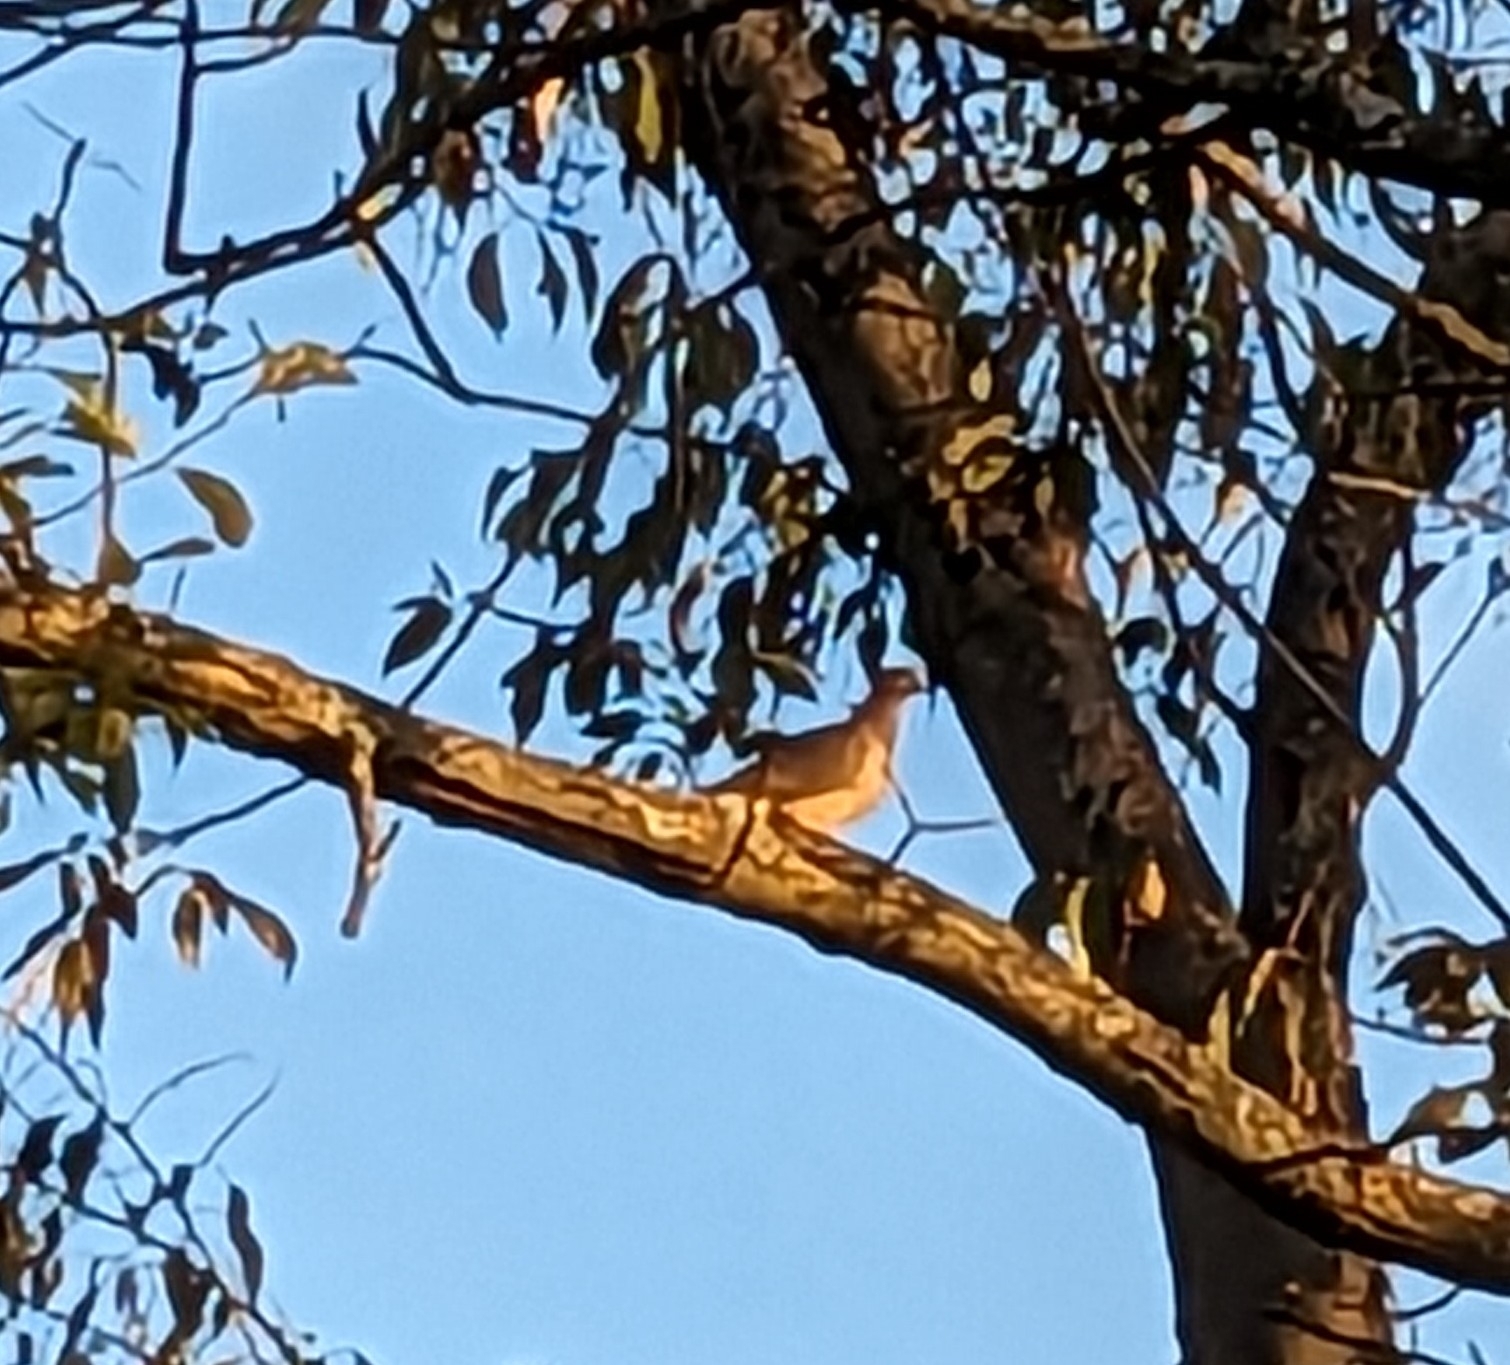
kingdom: Animalia
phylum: Chordata
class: Aves
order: Columbiformes
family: Columbidae
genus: Zenaida
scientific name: Zenaida macroura
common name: Mourning dove
